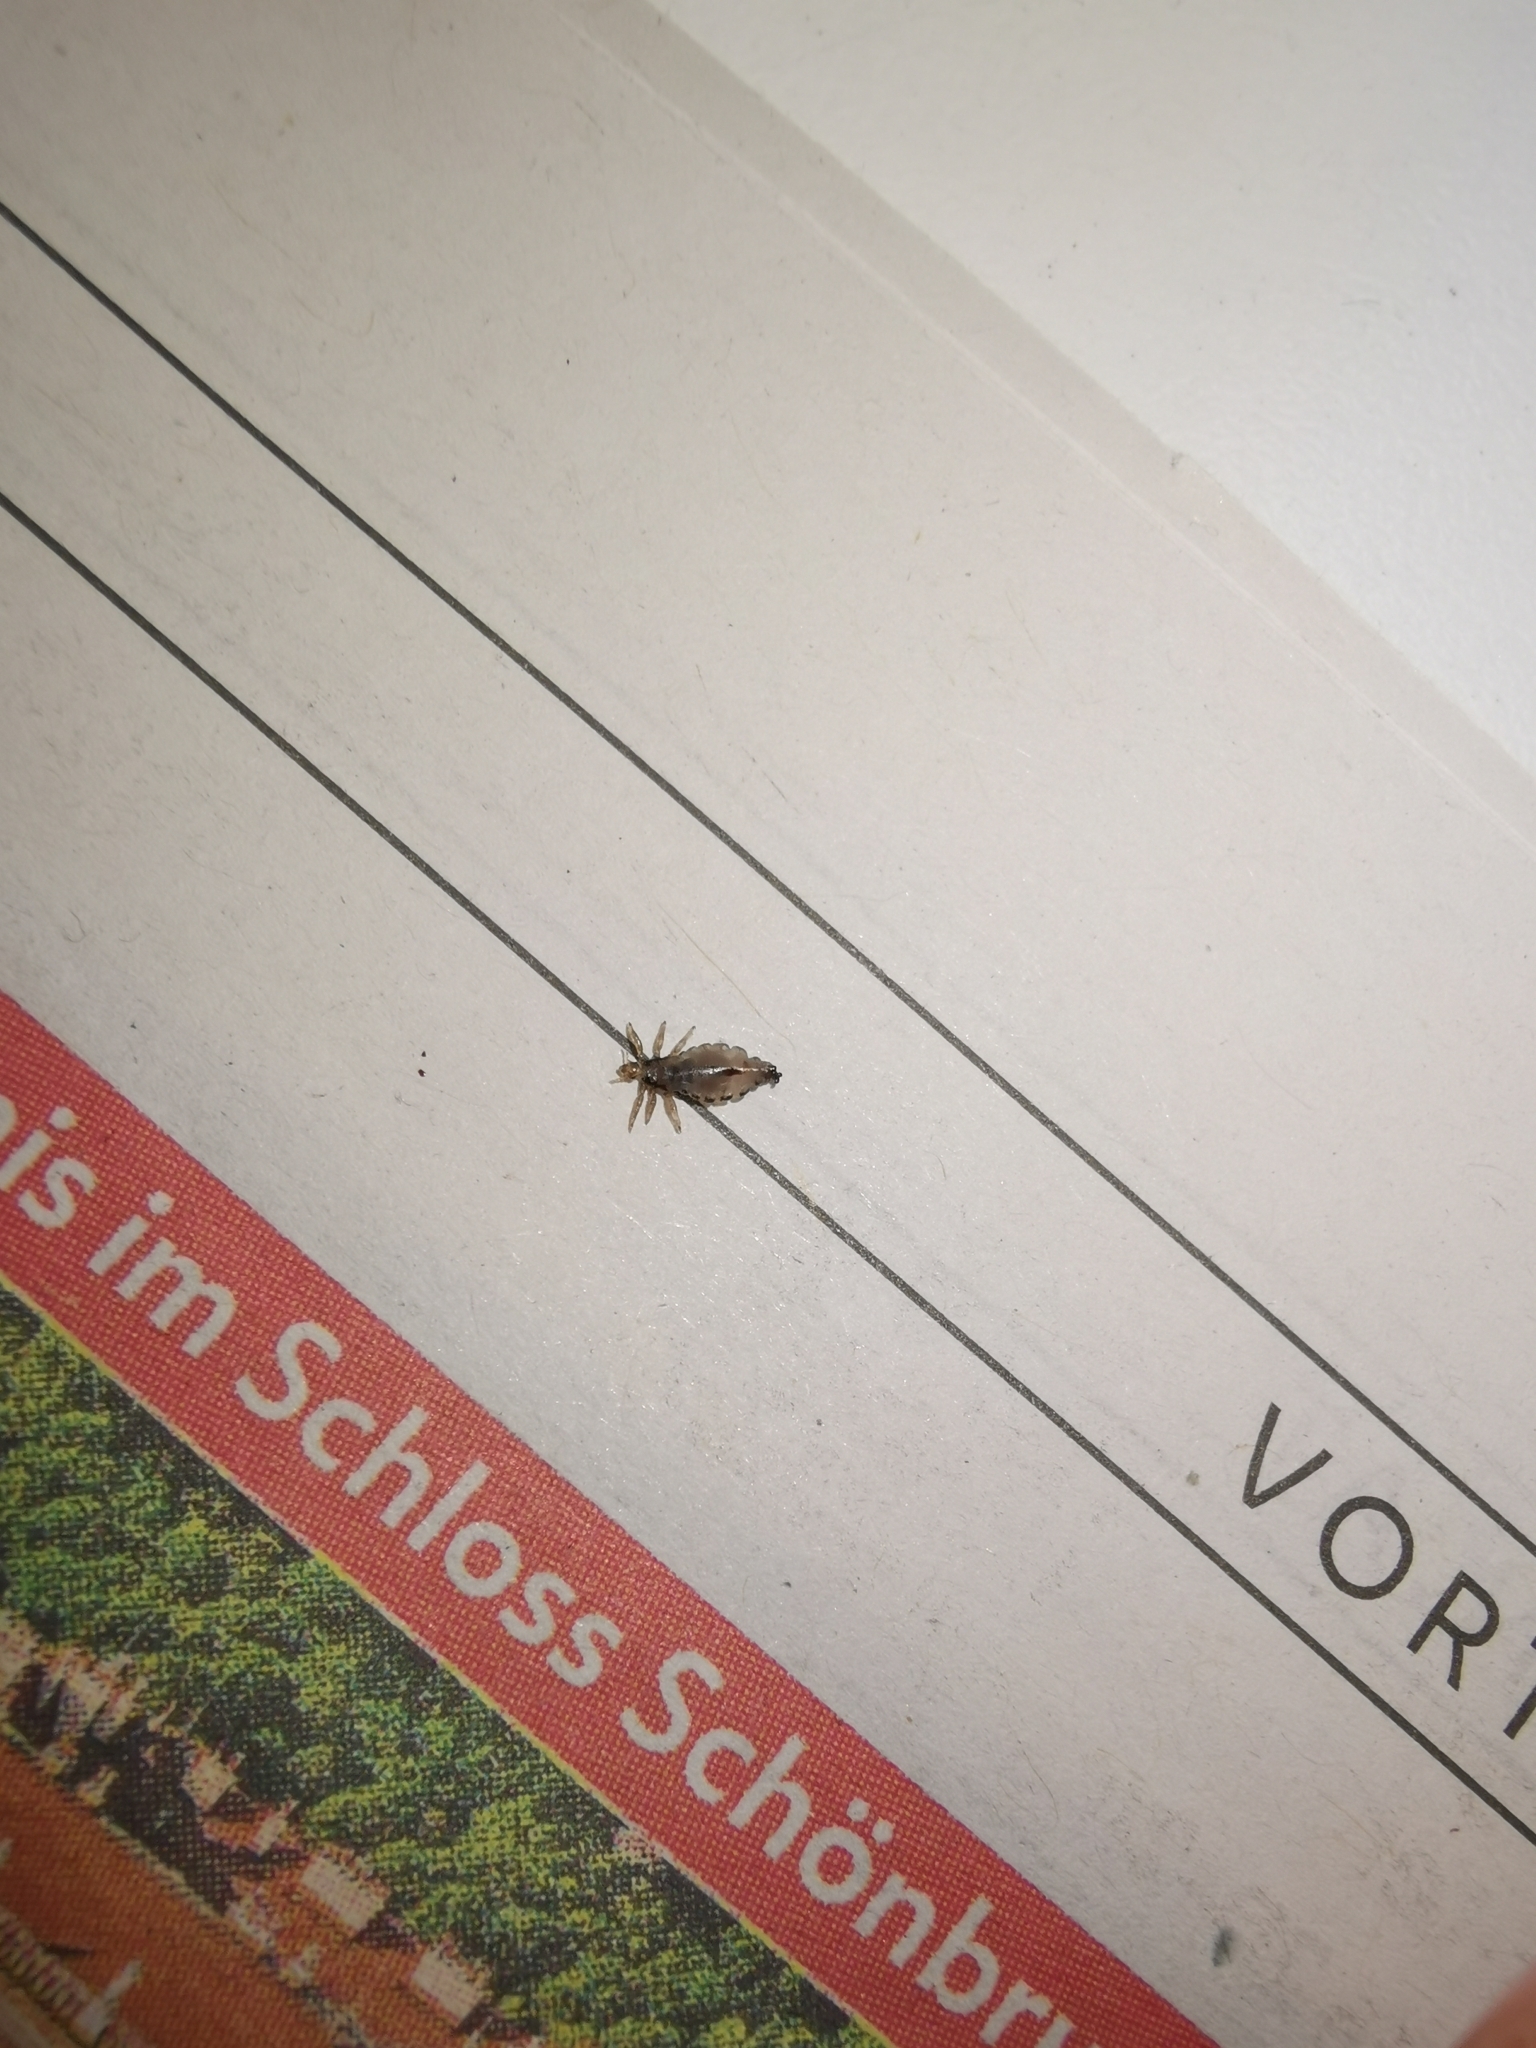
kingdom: Animalia
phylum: Arthropoda
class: Insecta
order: Psocodea
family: Pediculidae
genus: Pediculus
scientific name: Pediculus humanus
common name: Body louse
